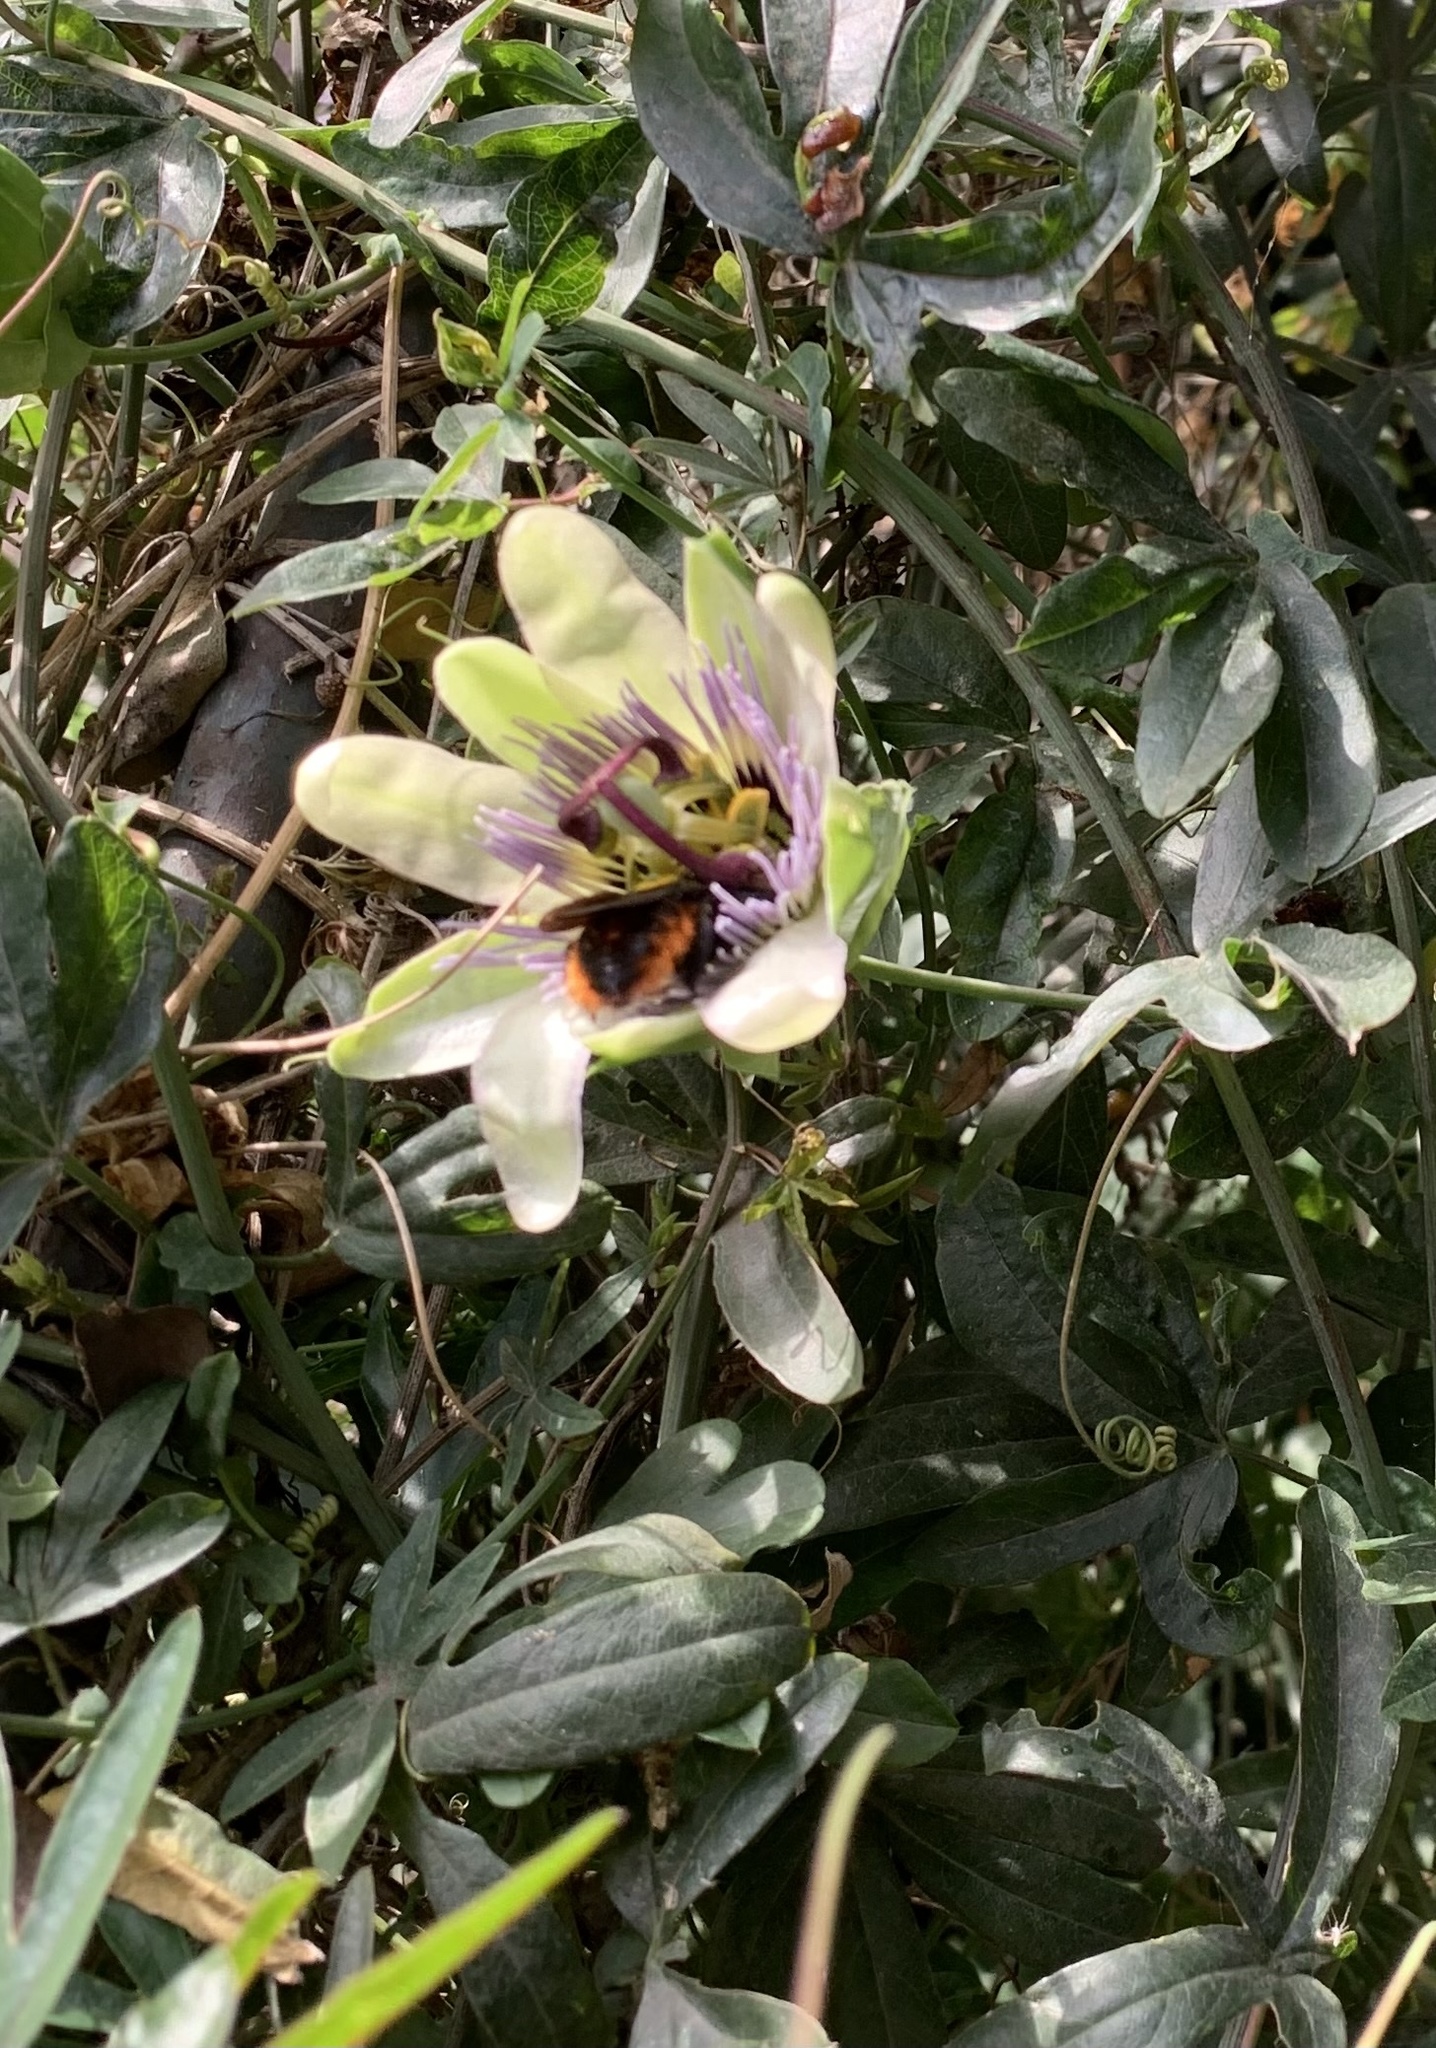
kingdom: Animalia
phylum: Arthropoda
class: Insecta
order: Hymenoptera
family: Apidae
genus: Xylocopa
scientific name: Xylocopa augusti
